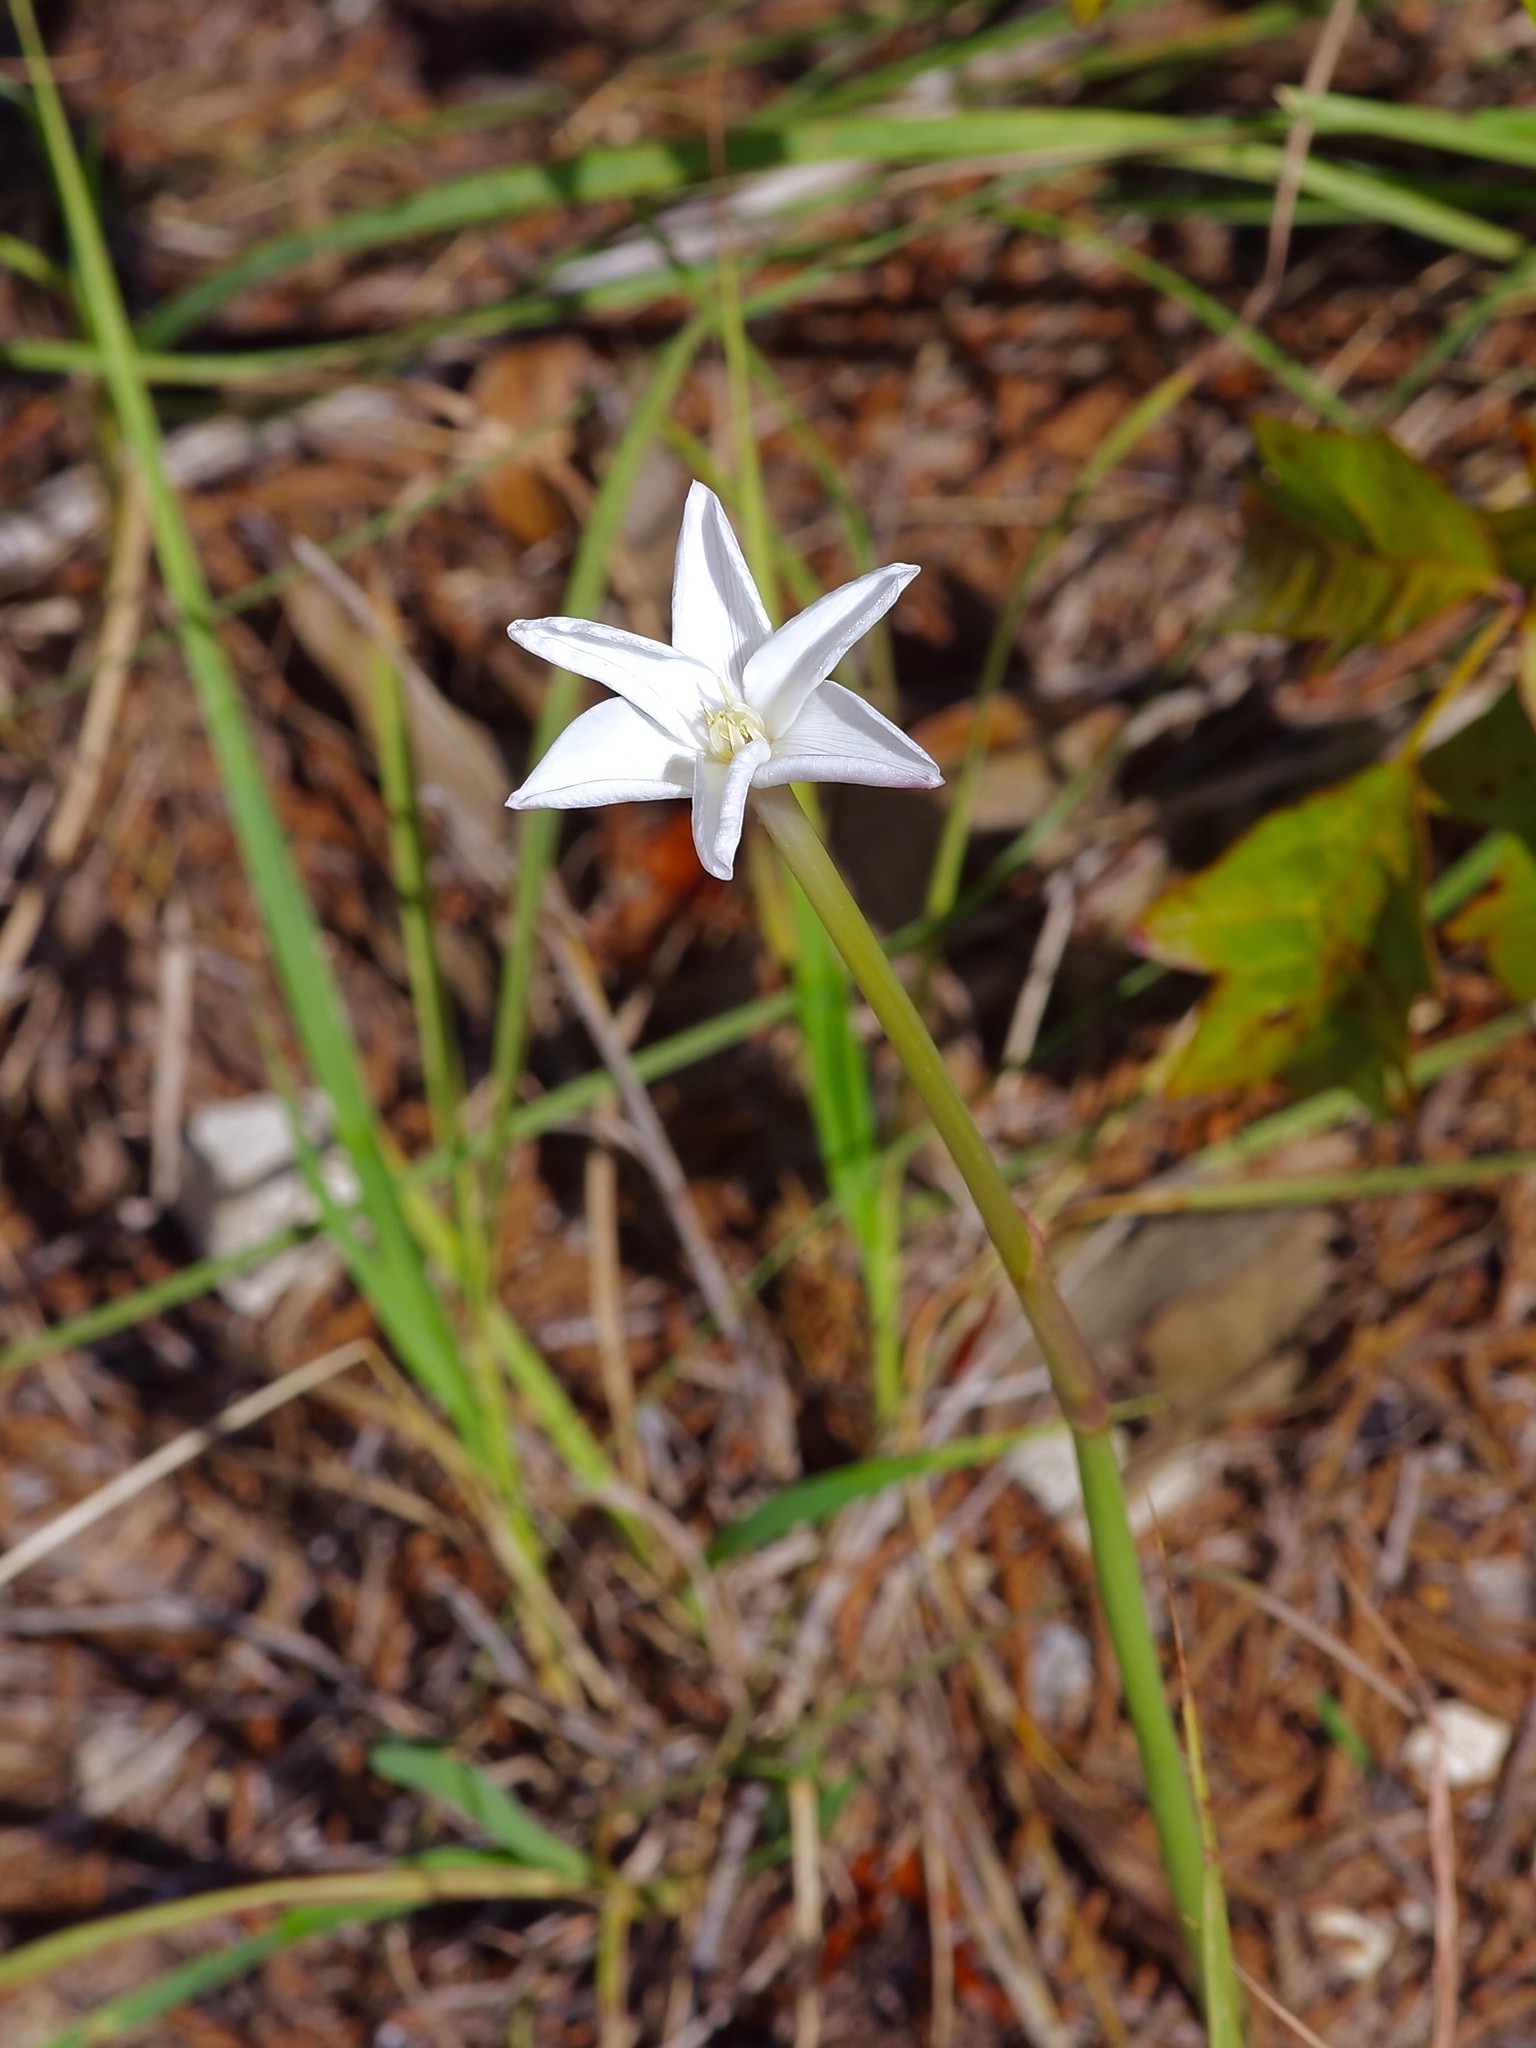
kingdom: Plantae
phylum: Tracheophyta
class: Liliopsida
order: Asparagales
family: Amaryllidaceae
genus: Zephyranthes
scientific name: Zephyranthes chlorosolen
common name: Evening rain-lily
